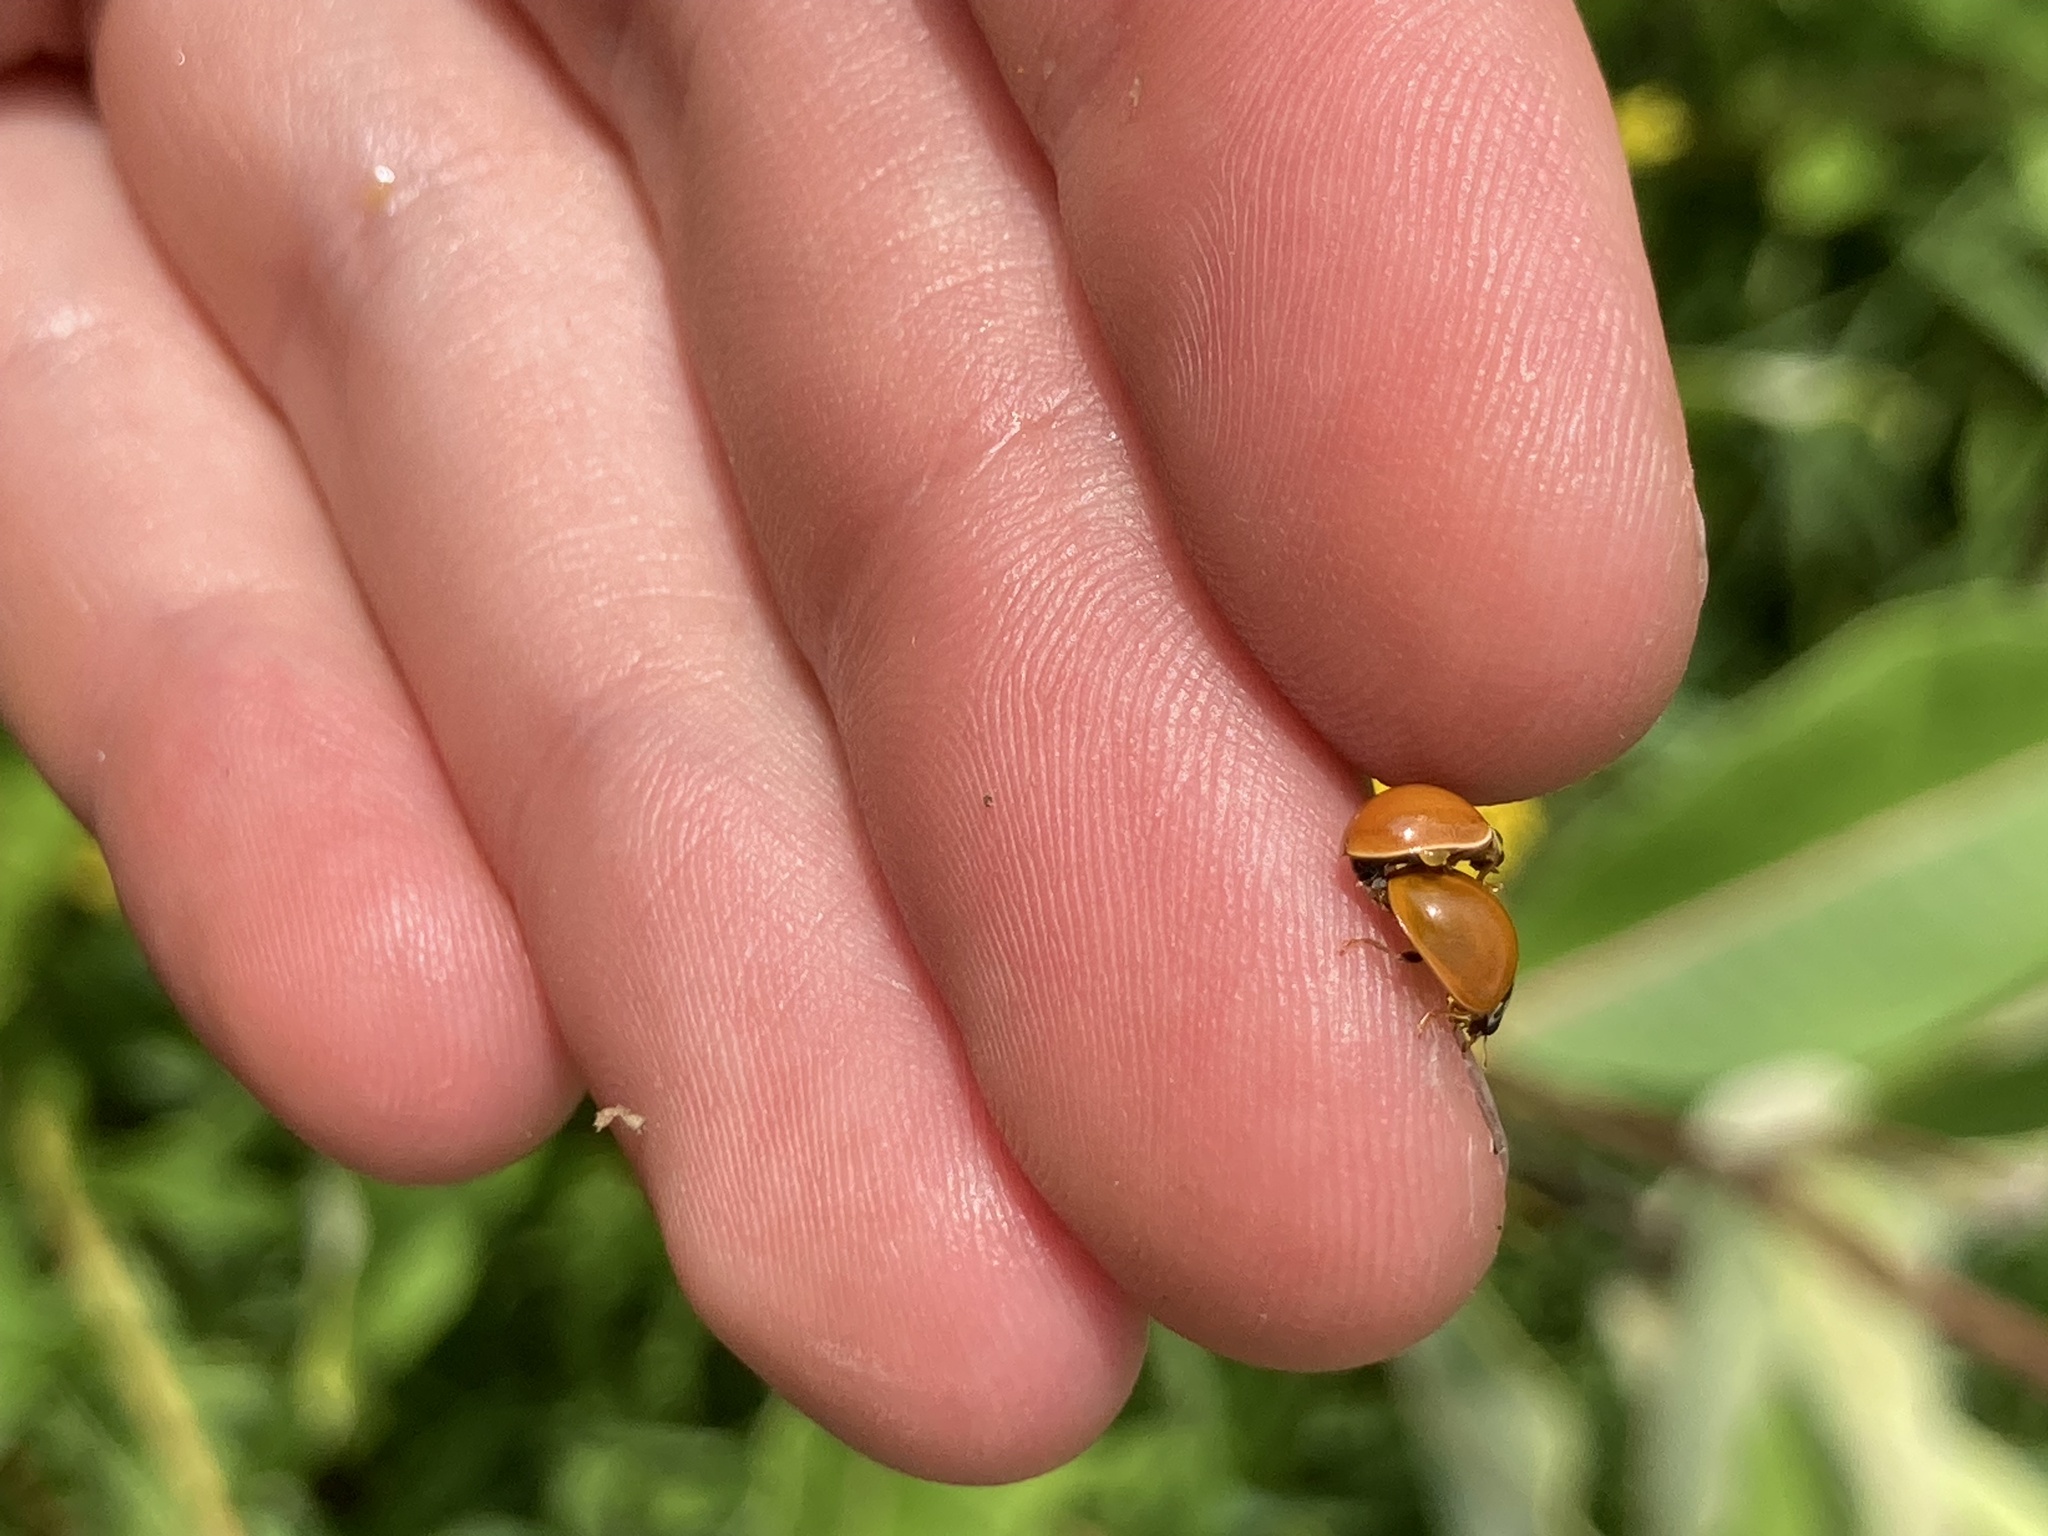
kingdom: Animalia
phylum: Arthropoda
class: Insecta
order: Coleoptera
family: Coccinellidae
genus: Cycloneda
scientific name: Cycloneda munda
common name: Polished lady beetle
